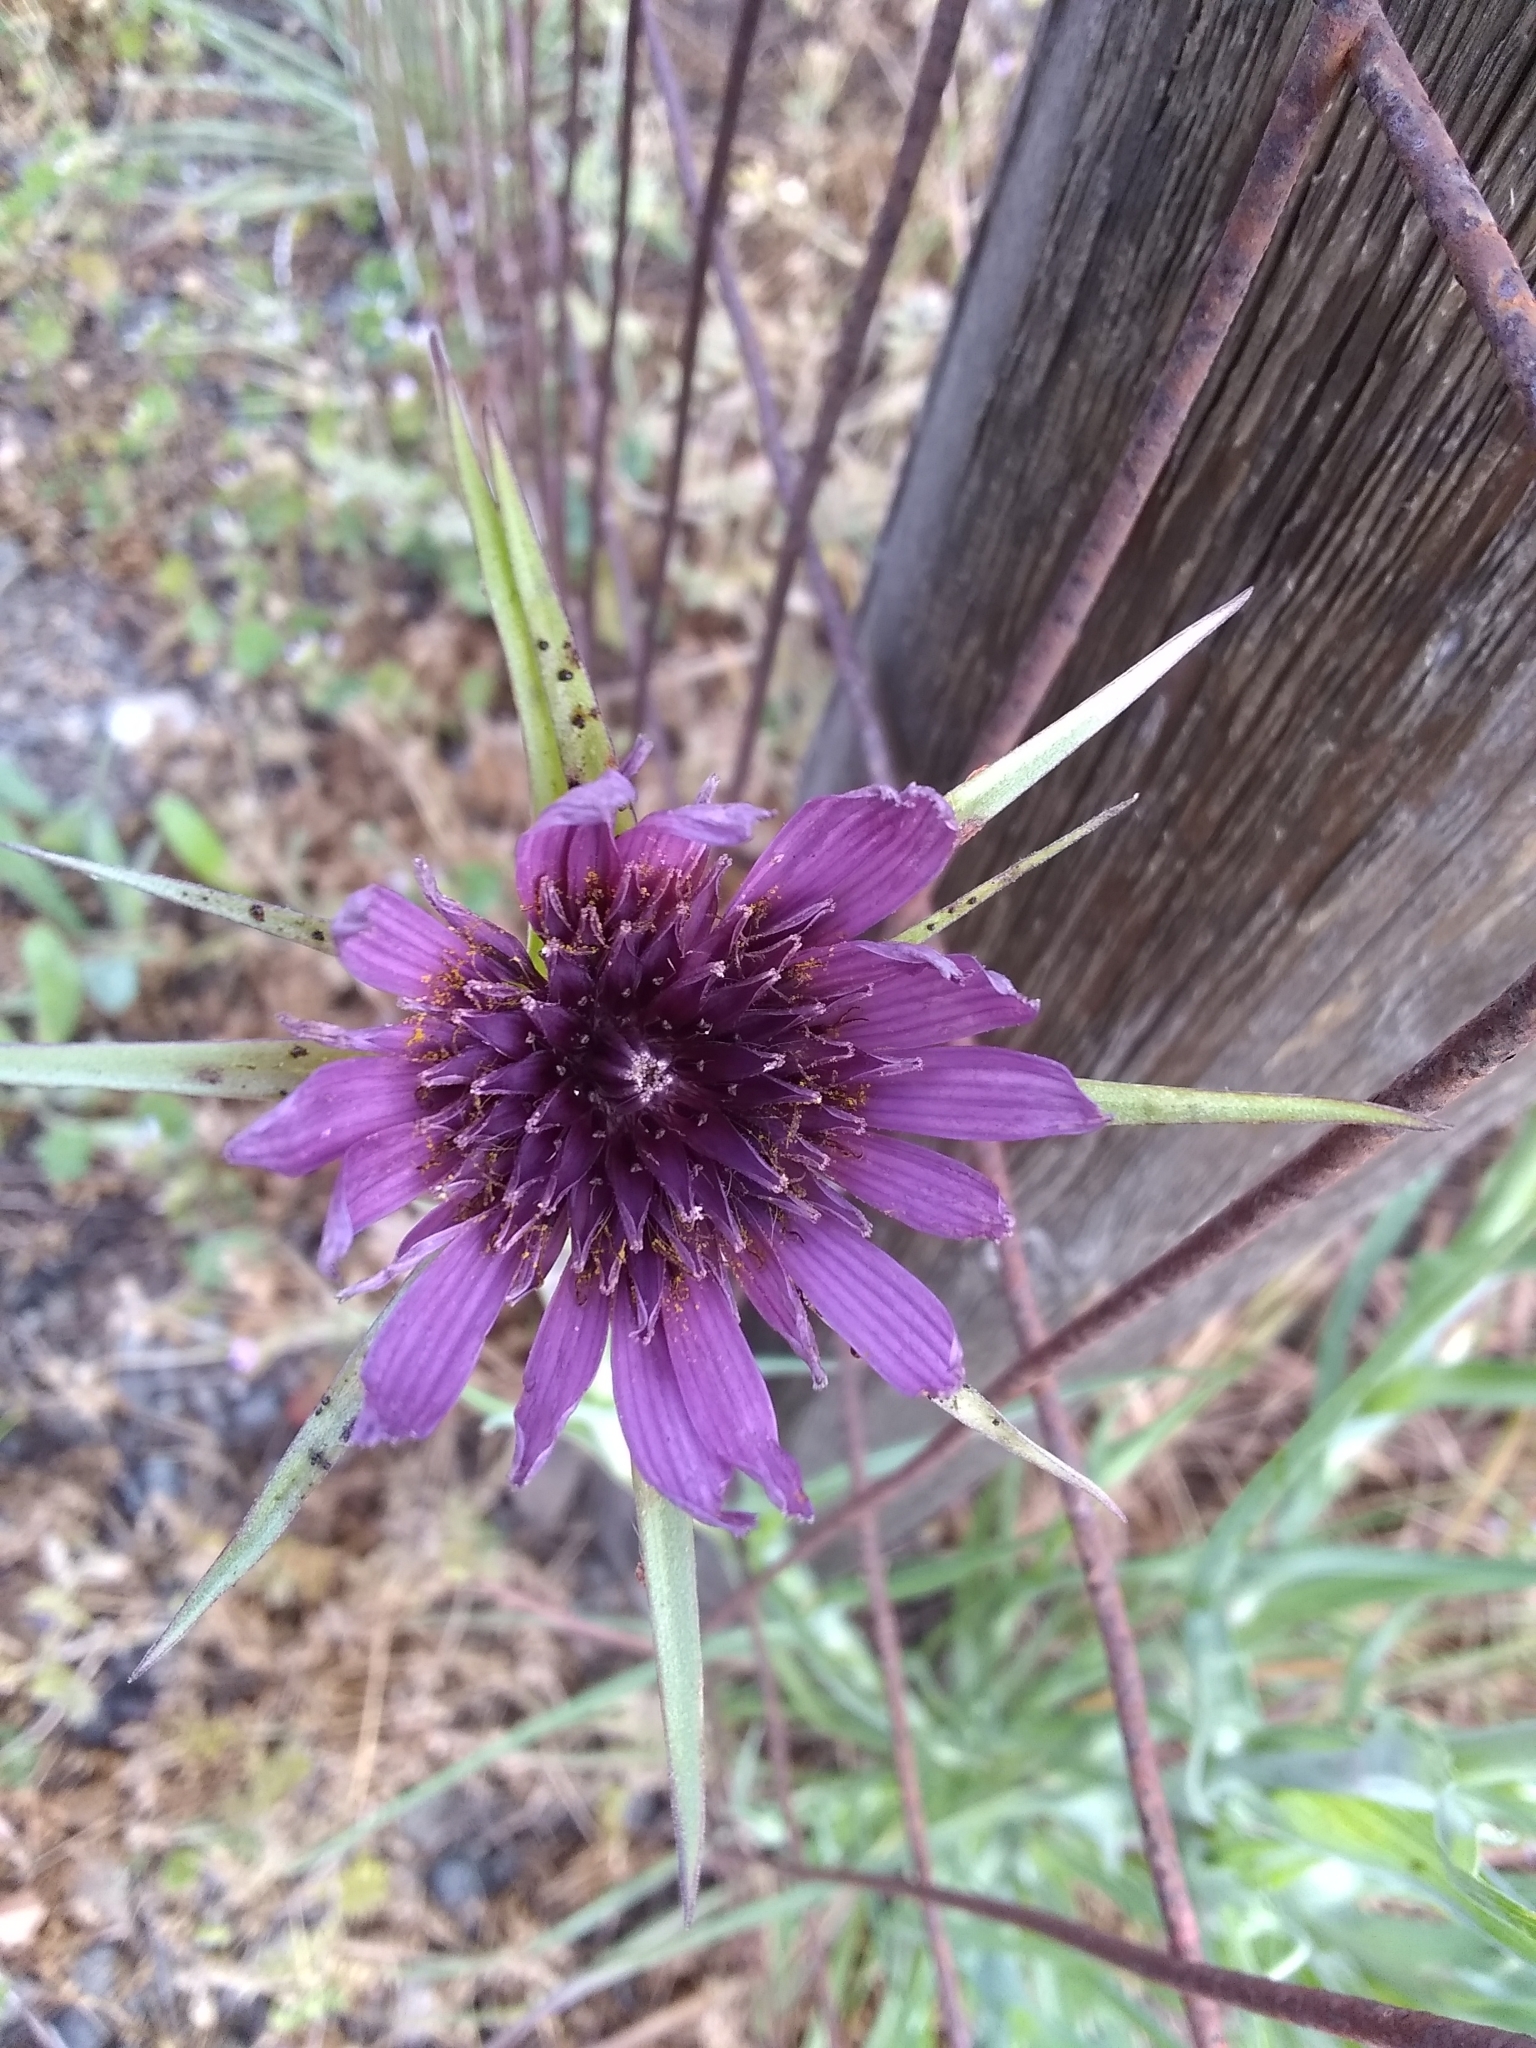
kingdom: Plantae
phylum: Tracheophyta
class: Magnoliopsida
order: Asterales
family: Asteraceae
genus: Tragopogon
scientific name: Tragopogon porrifolius
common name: Salsify
